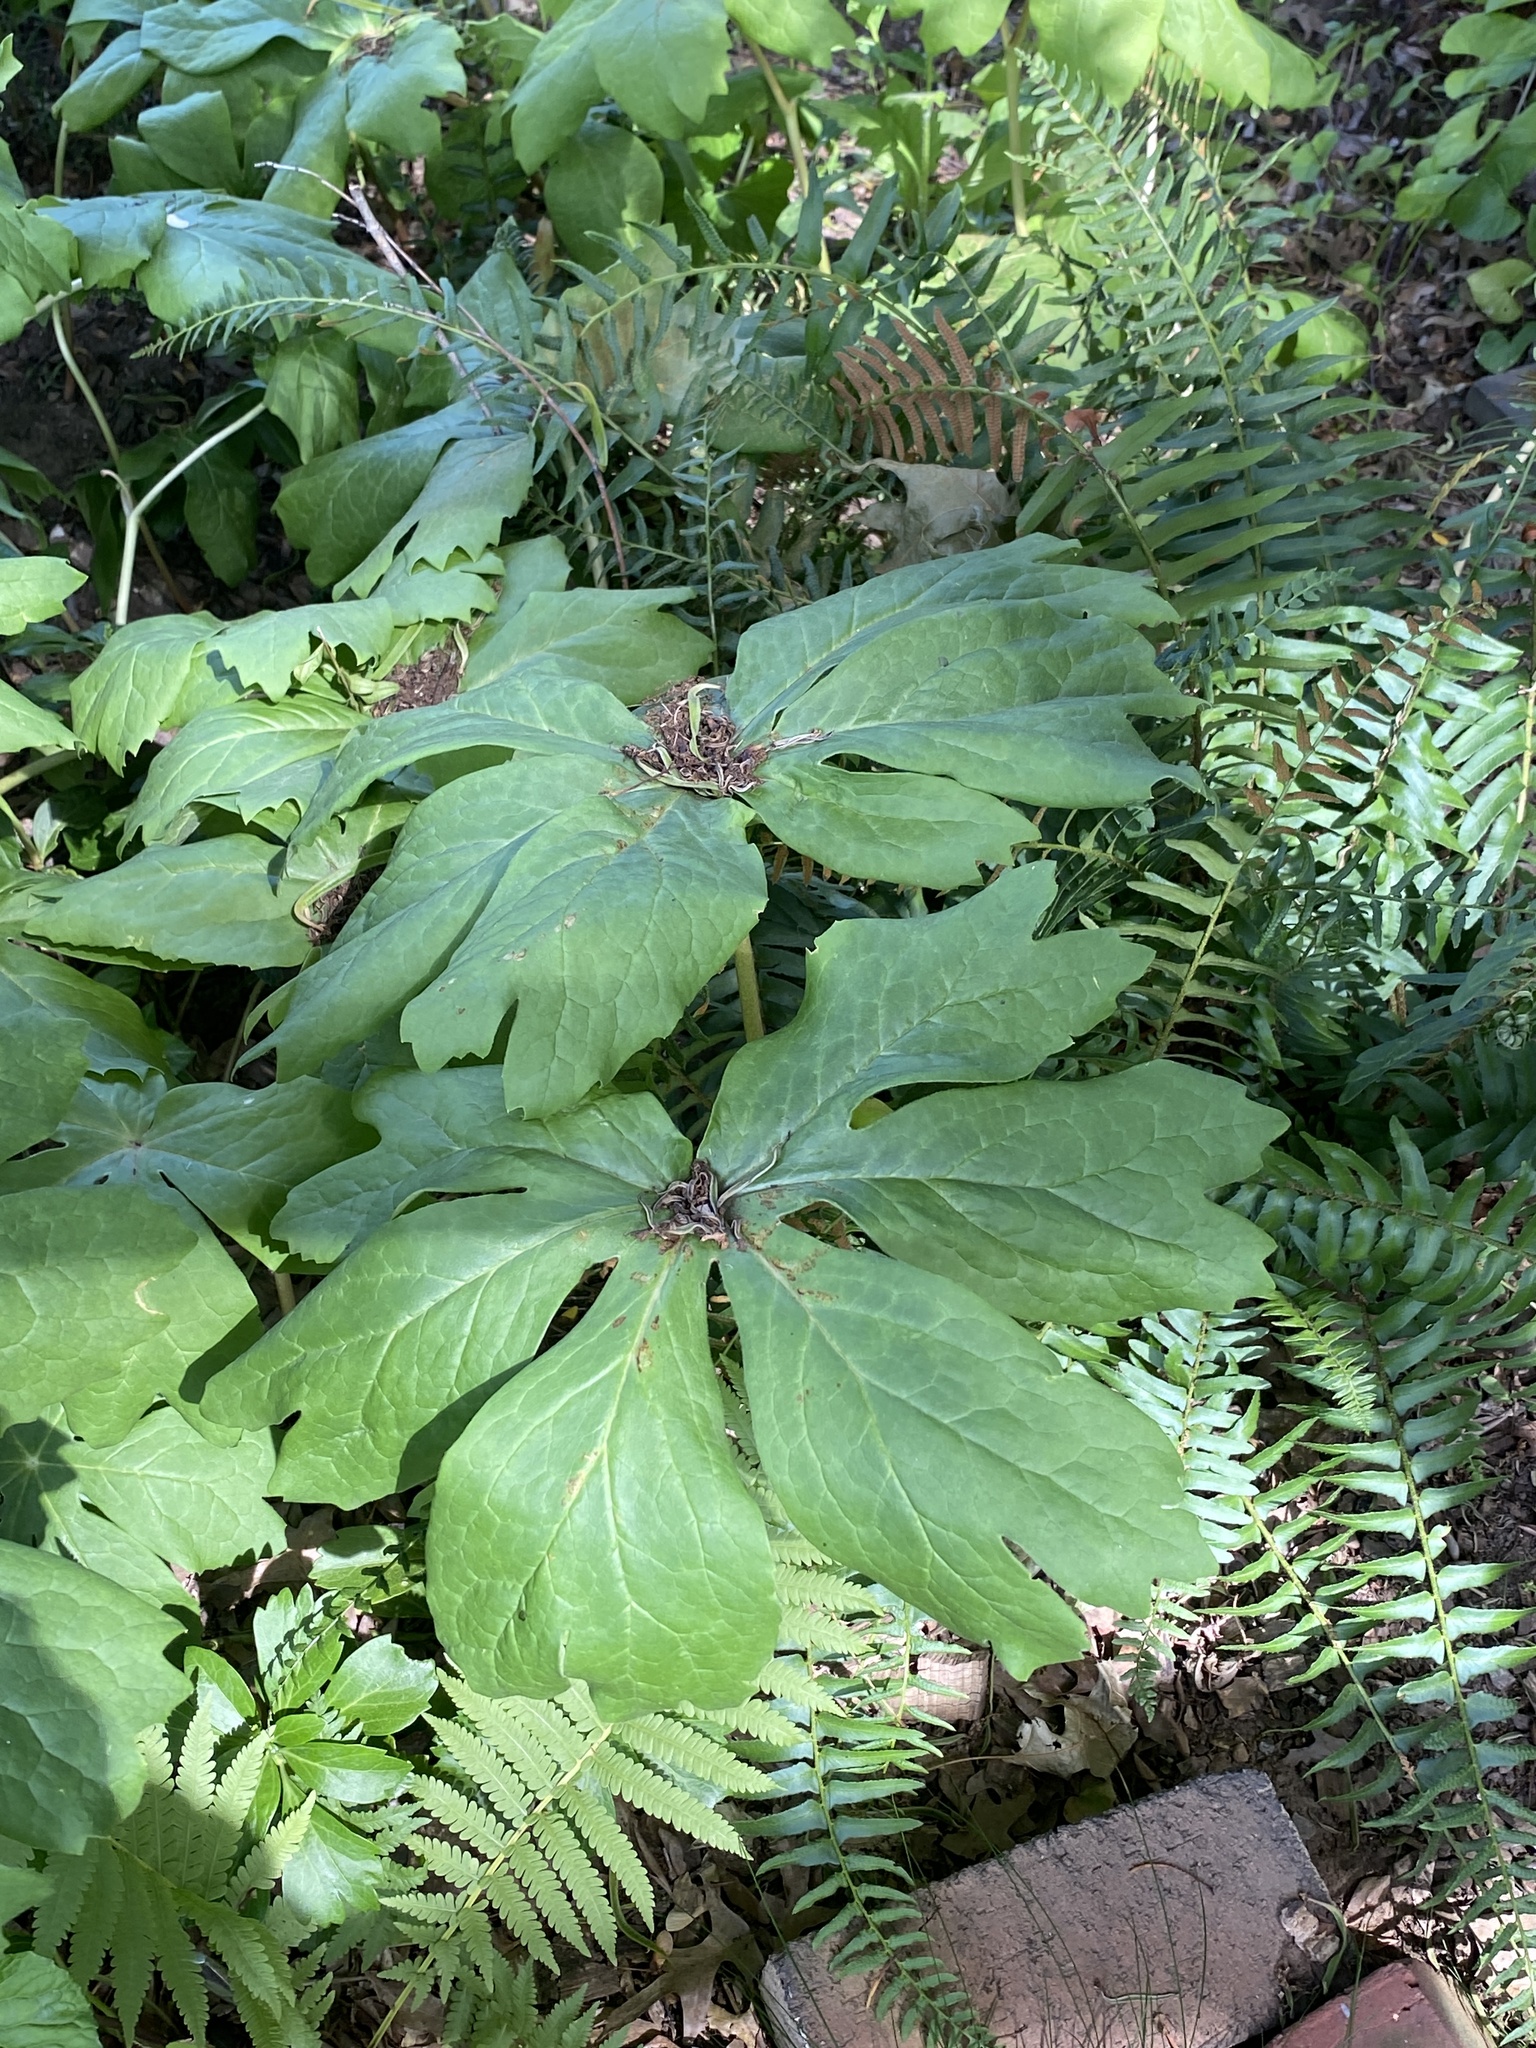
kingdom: Plantae
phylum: Tracheophyta
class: Magnoliopsida
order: Ranunculales
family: Berberidaceae
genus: Podophyllum
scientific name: Podophyllum peltatum
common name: Wild mandrake
